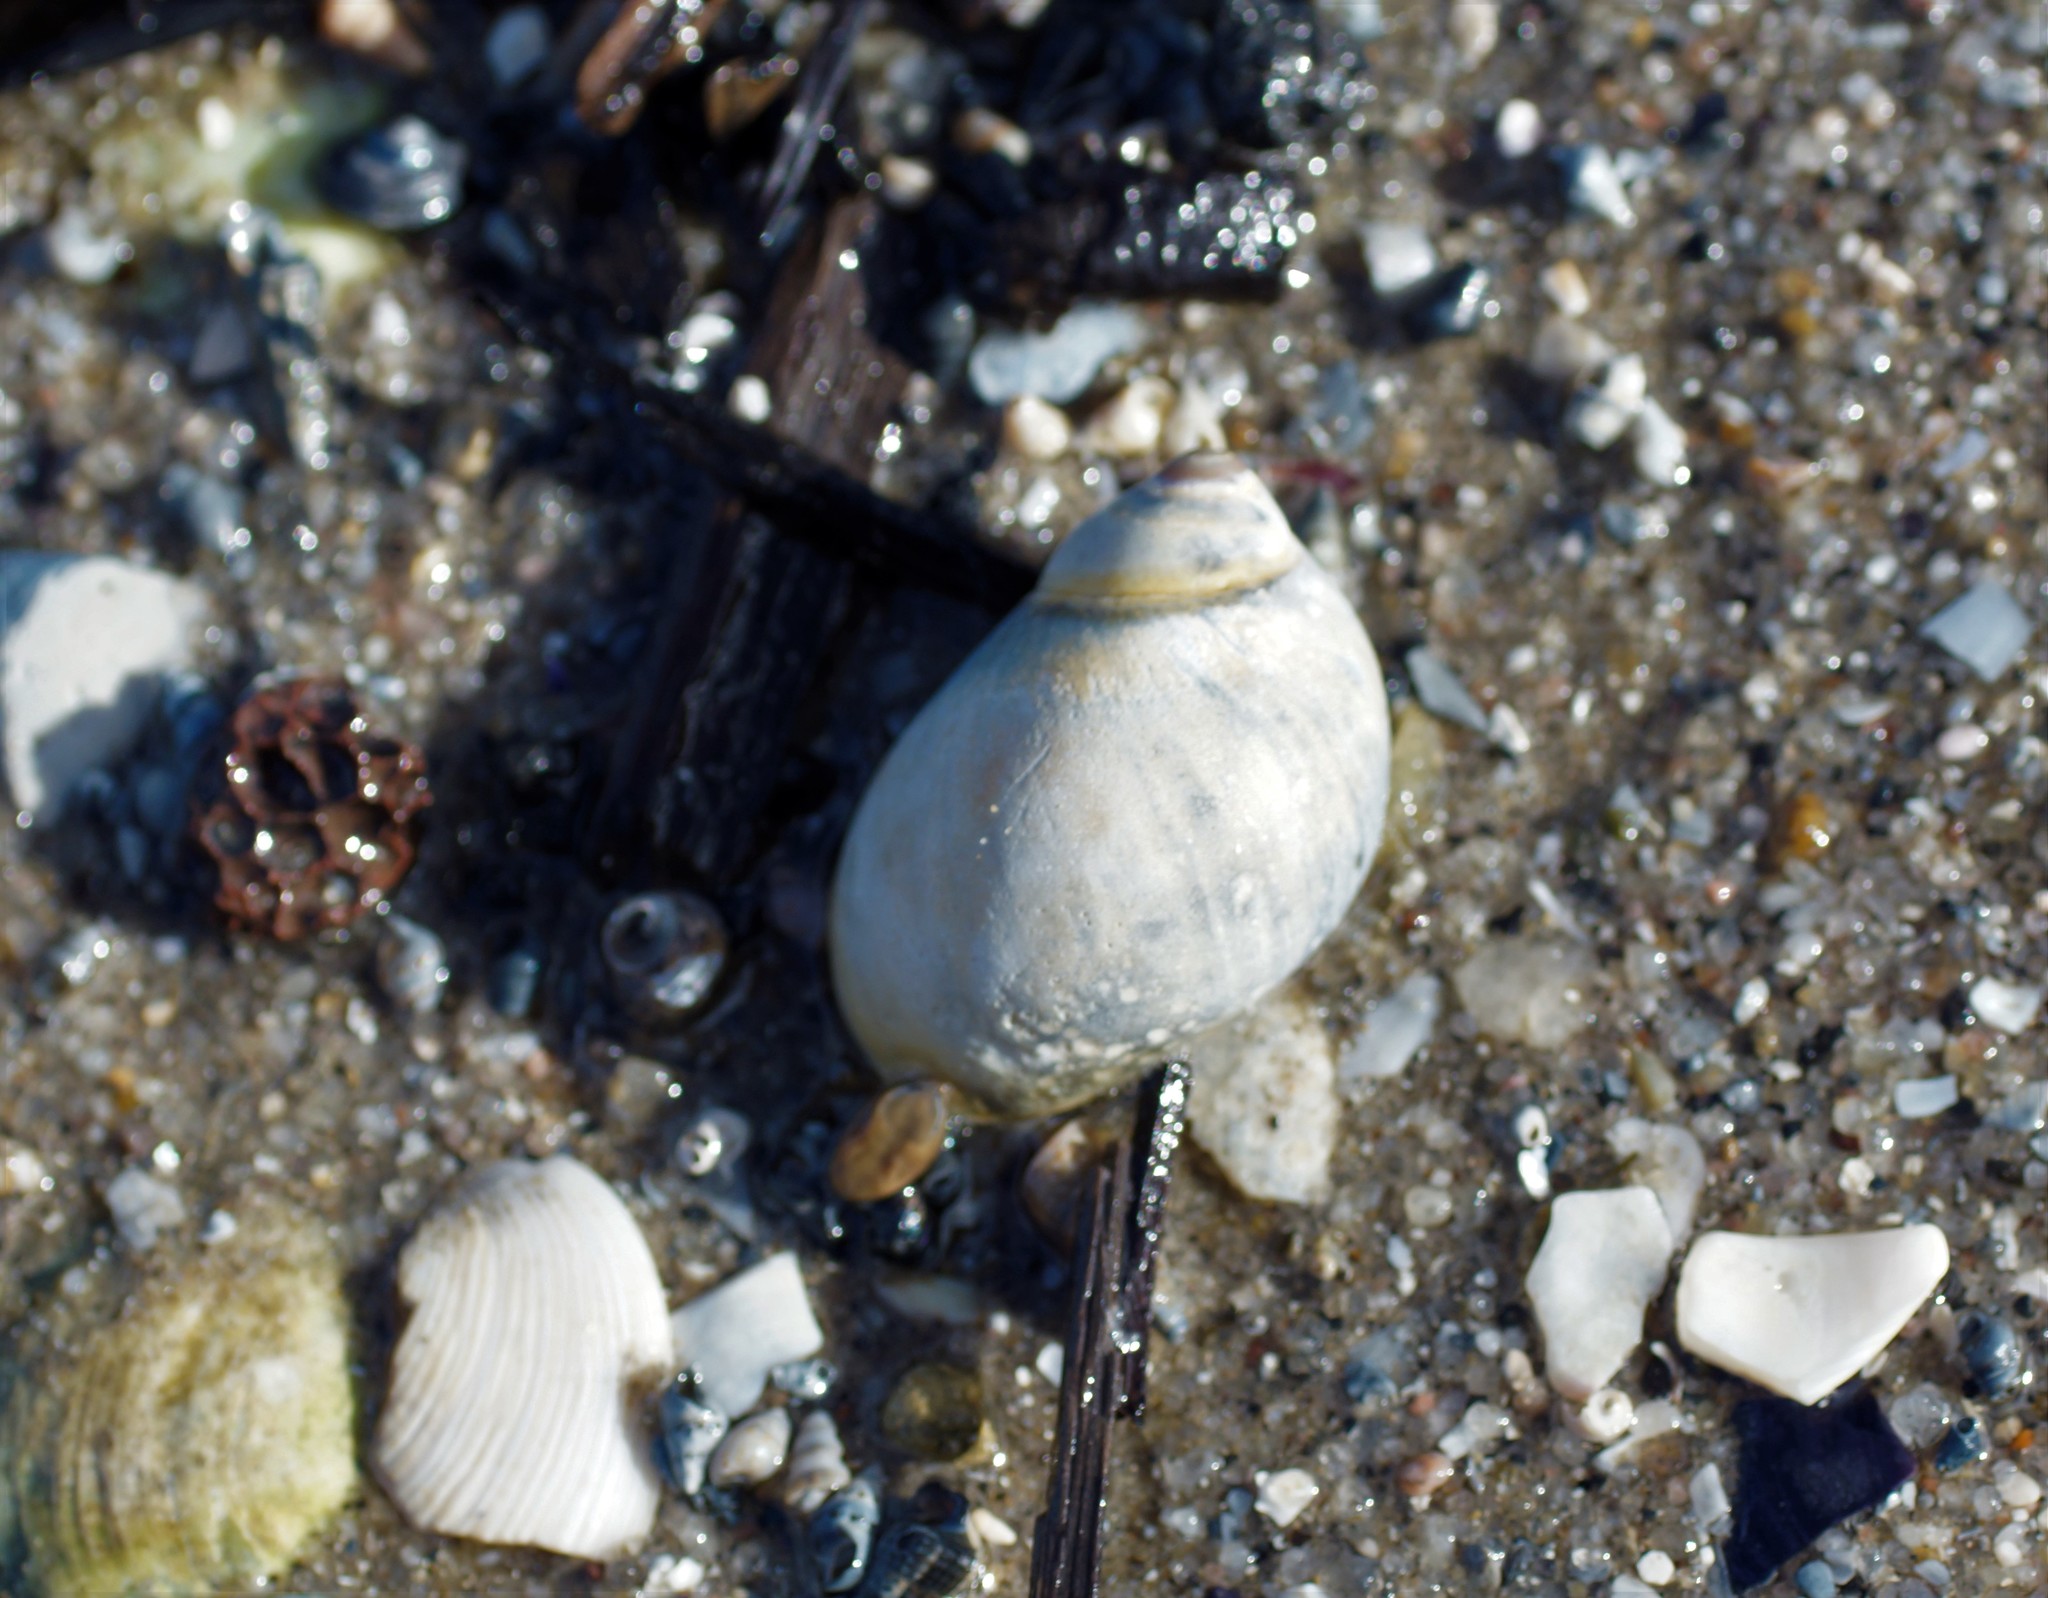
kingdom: Animalia
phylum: Mollusca
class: Gastropoda
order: Littorinimorpha
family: Naticidae
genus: Conuber
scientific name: Conuber conicum
